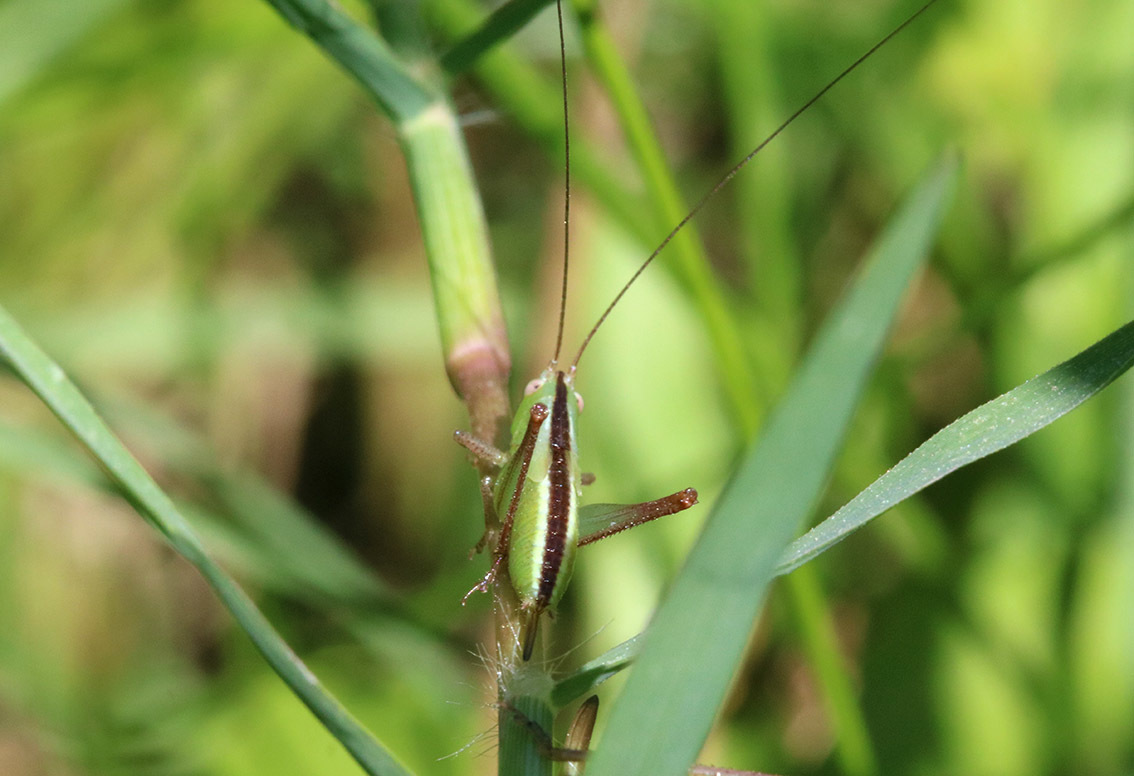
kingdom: Animalia
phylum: Arthropoda
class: Insecta
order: Orthoptera
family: Tettigoniidae
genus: Conocephalus
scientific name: Conocephalus longipes
